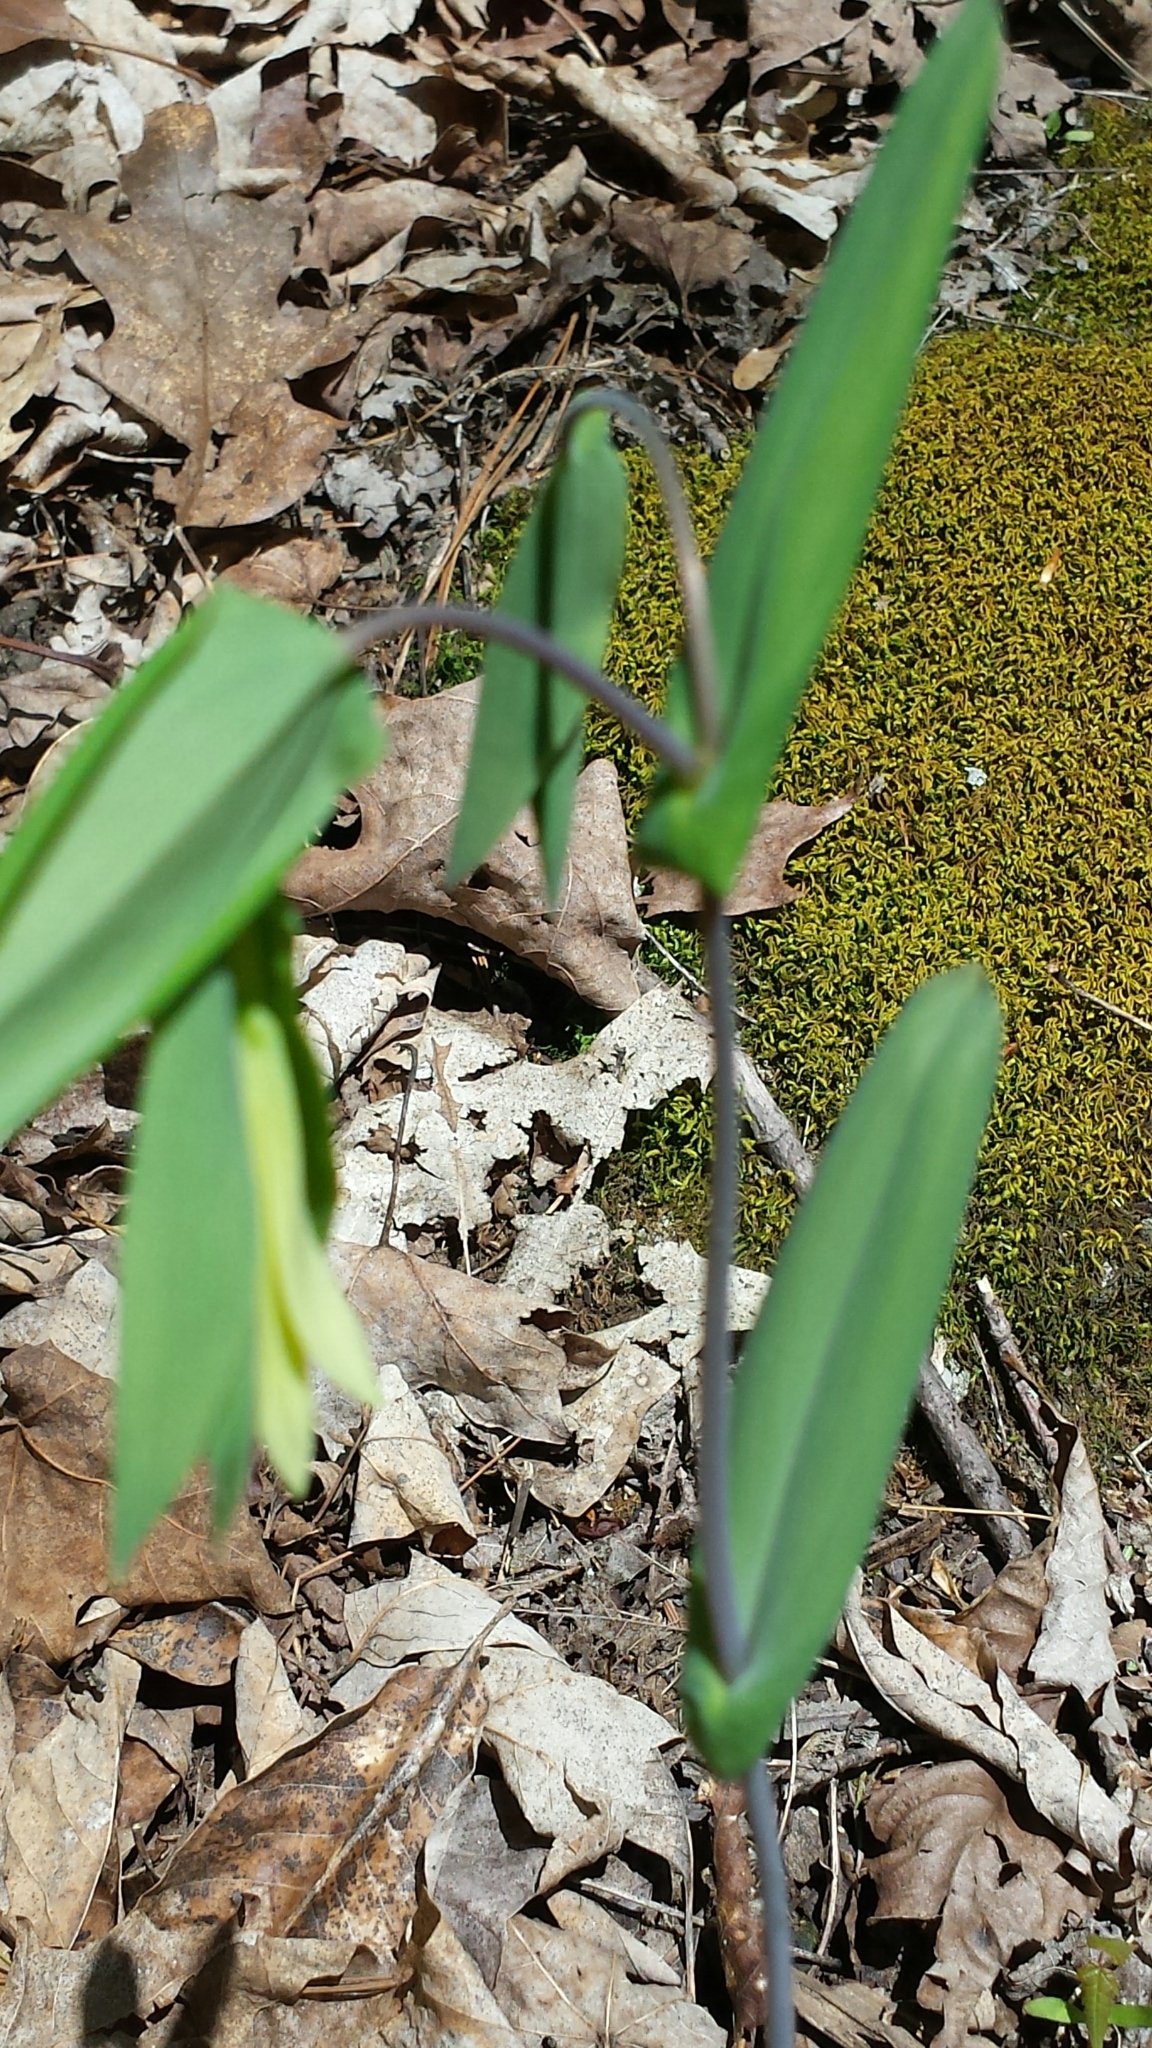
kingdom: Plantae
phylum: Tracheophyta
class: Liliopsida
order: Liliales
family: Colchicaceae
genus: Uvularia
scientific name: Uvularia perfoliata
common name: Perfoliate bellwort
